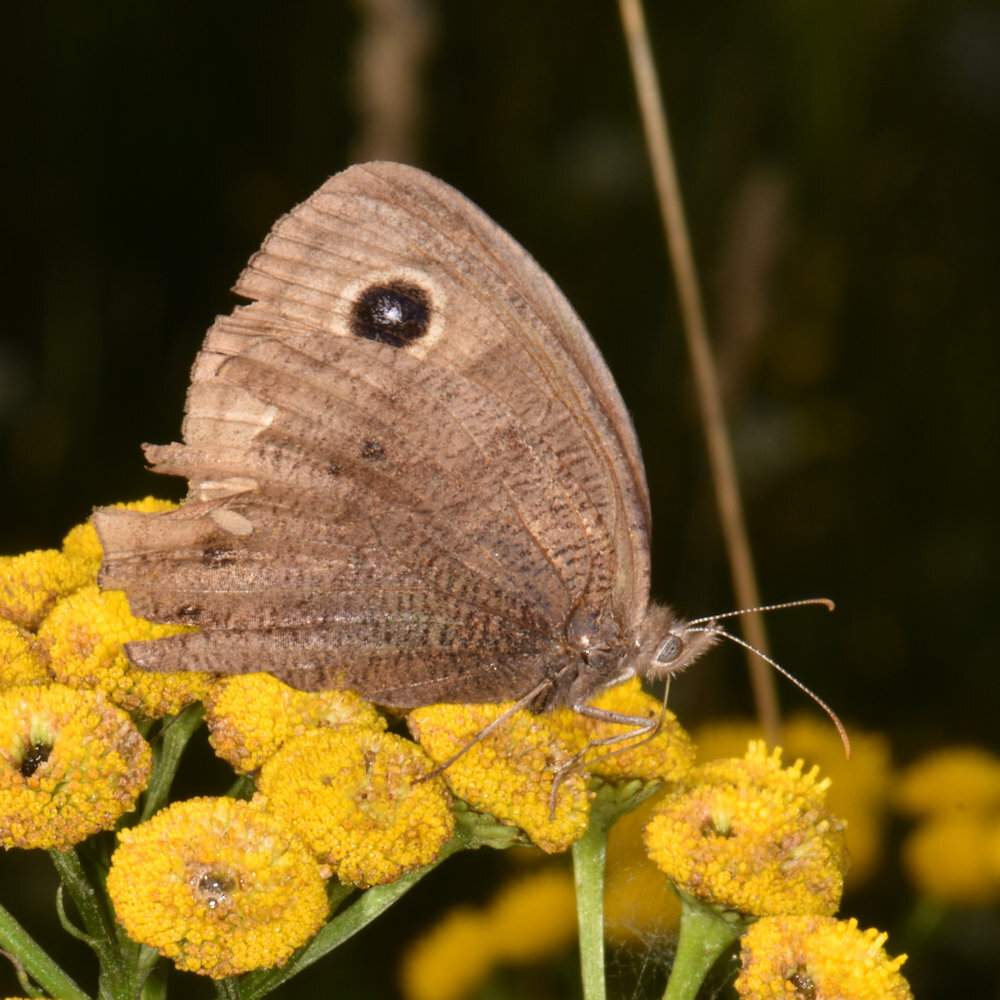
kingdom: Animalia
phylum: Arthropoda
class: Insecta
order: Lepidoptera
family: Nymphalidae
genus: Cercyonis
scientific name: Cercyonis pegala
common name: Common wood-nymph
